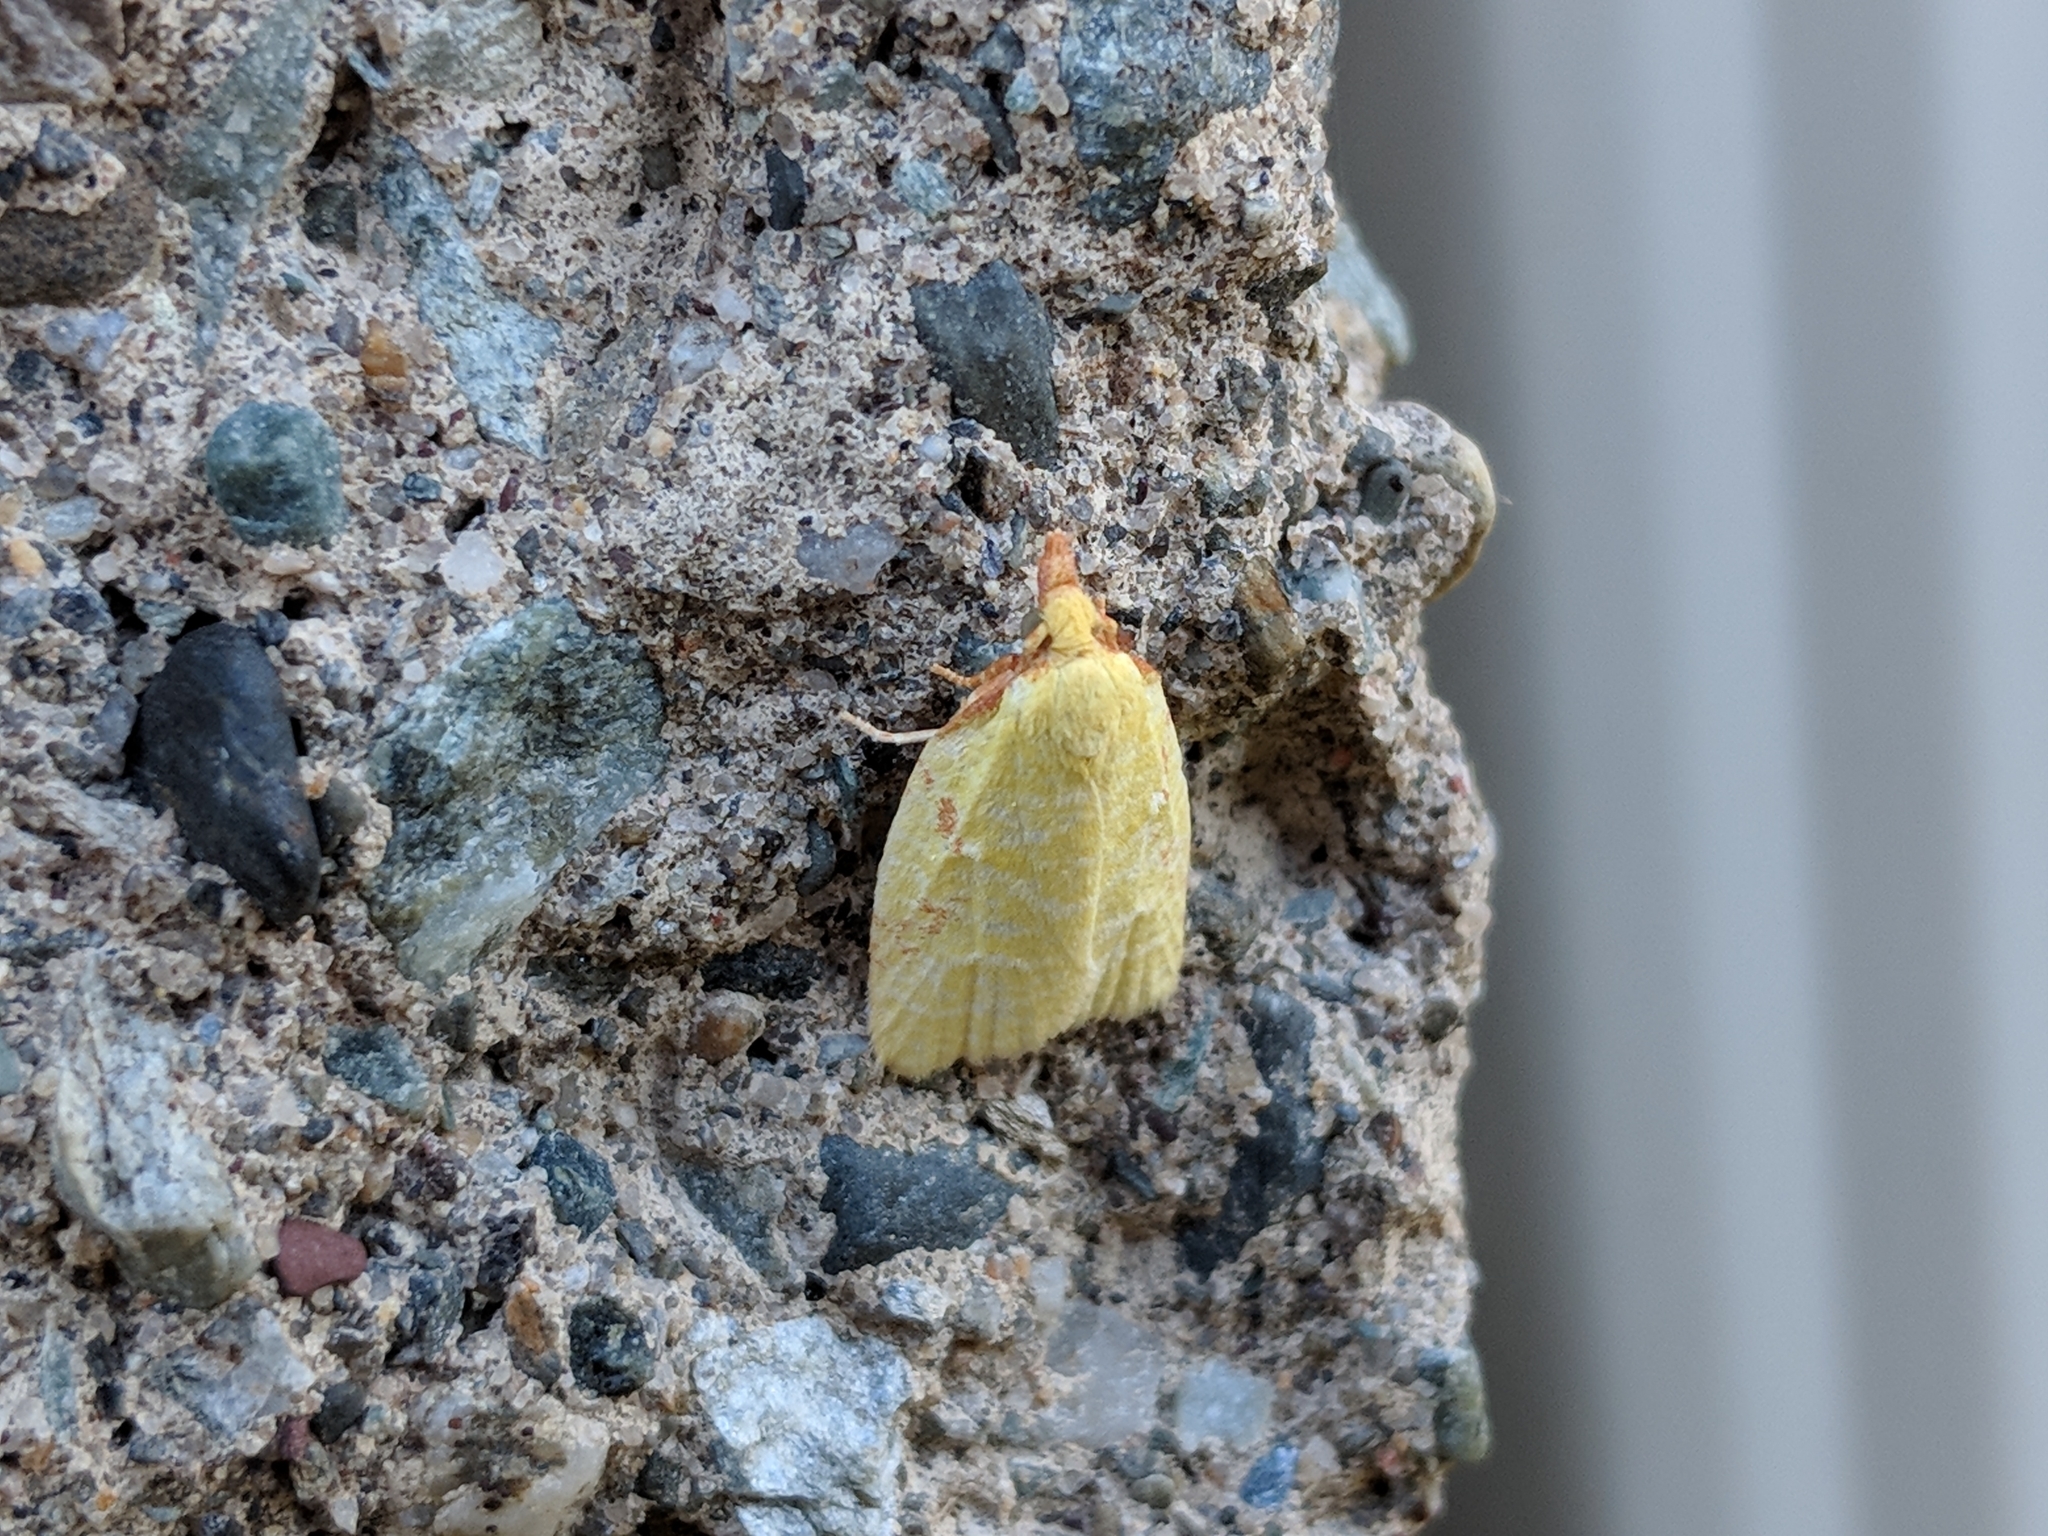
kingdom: Animalia
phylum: Arthropoda
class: Insecta
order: Lepidoptera
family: Tortricidae
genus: Cenopis
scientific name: Cenopis pettitana
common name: Maple-basswood leafroller moth
